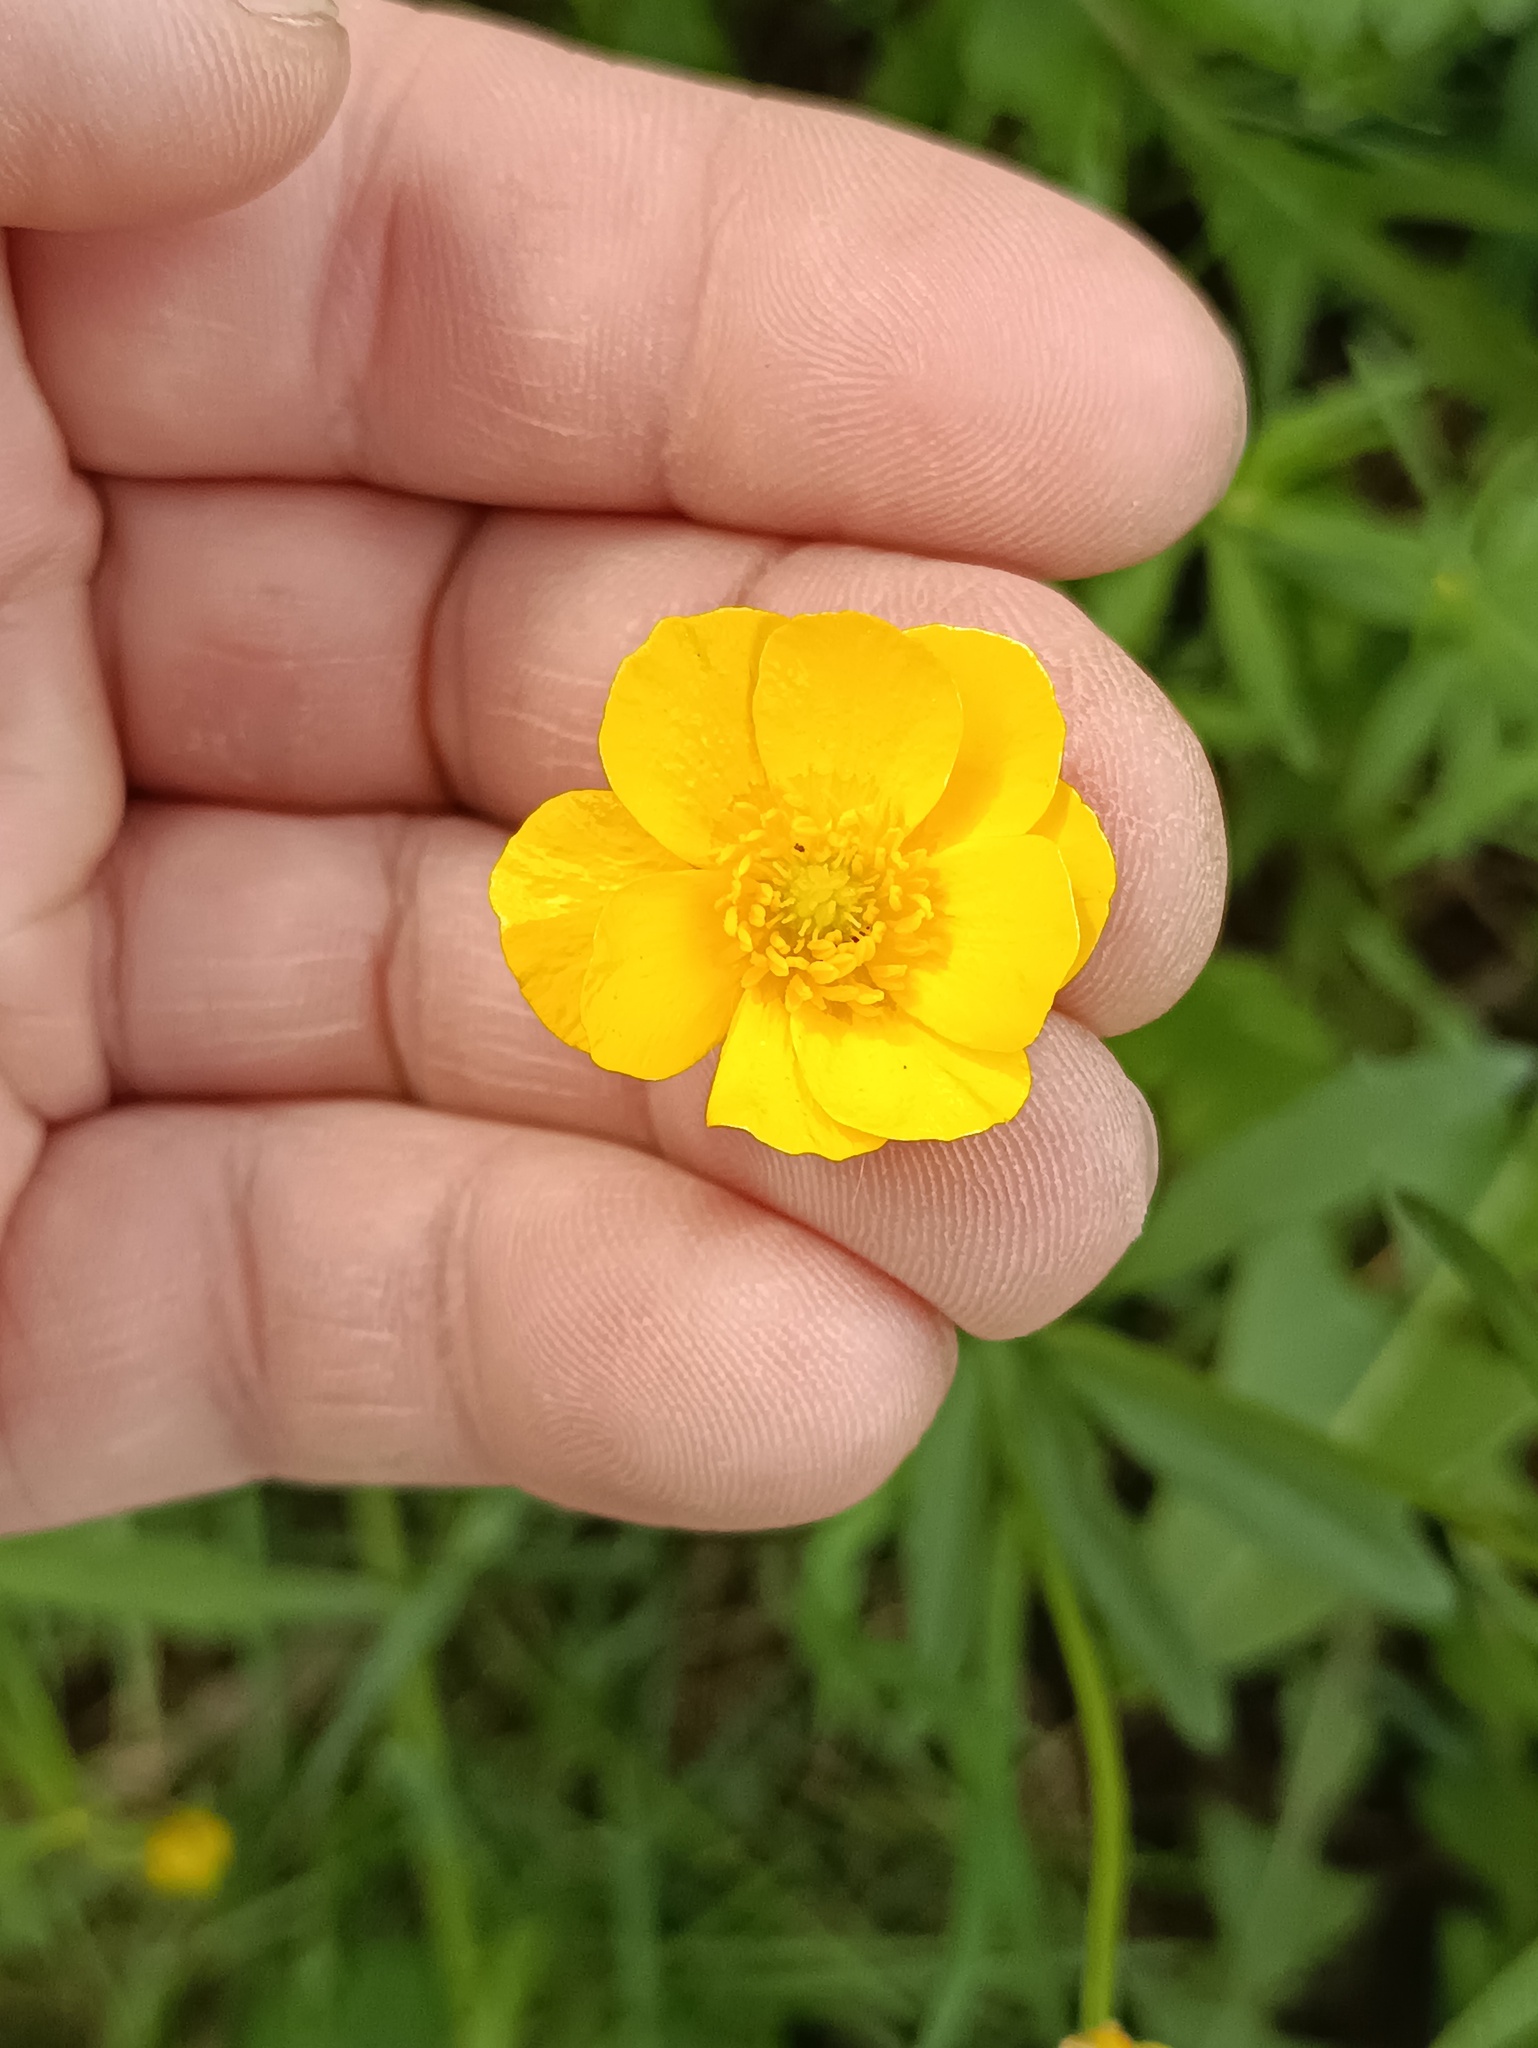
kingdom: Plantae
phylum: Tracheophyta
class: Magnoliopsida
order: Ranunculales
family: Ranunculaceae
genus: Ranunculus
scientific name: Ranunculus cassubicus
